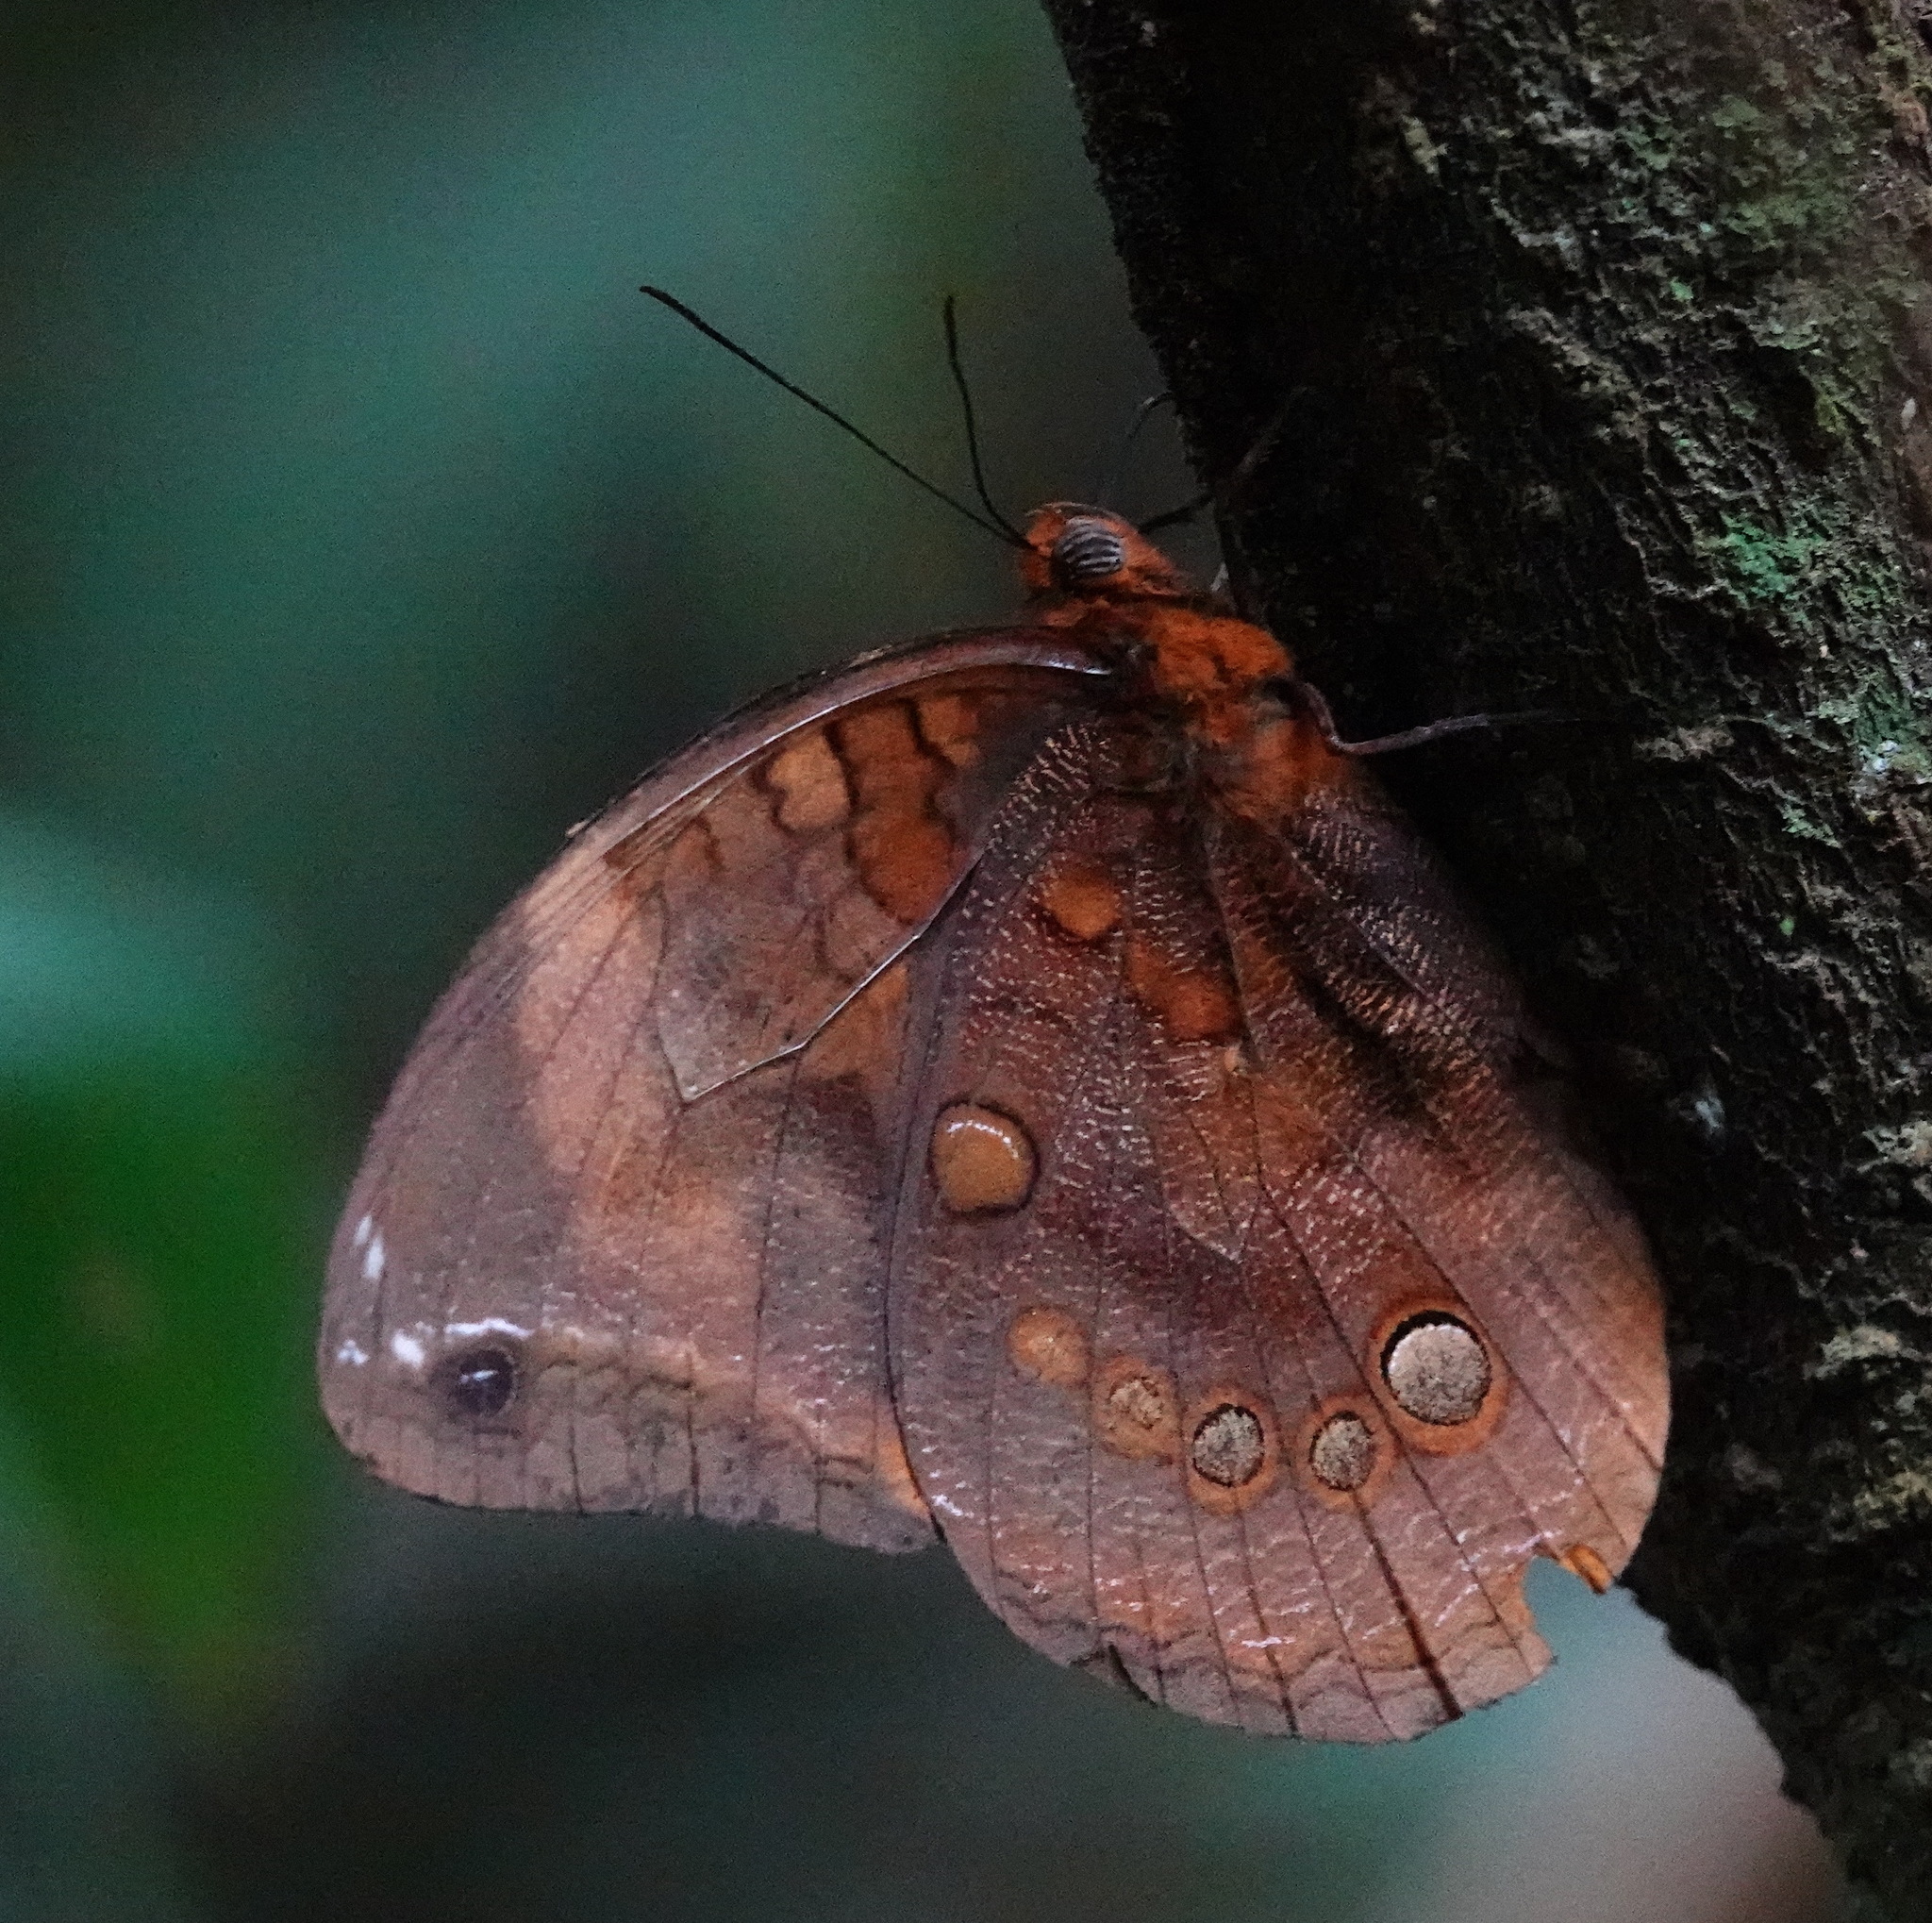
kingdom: Animalia
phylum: Arthropoda
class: Insecta
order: Lepidoptera
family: Nymphalidae
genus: Catoblepia
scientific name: Catoblepia berecynthia
